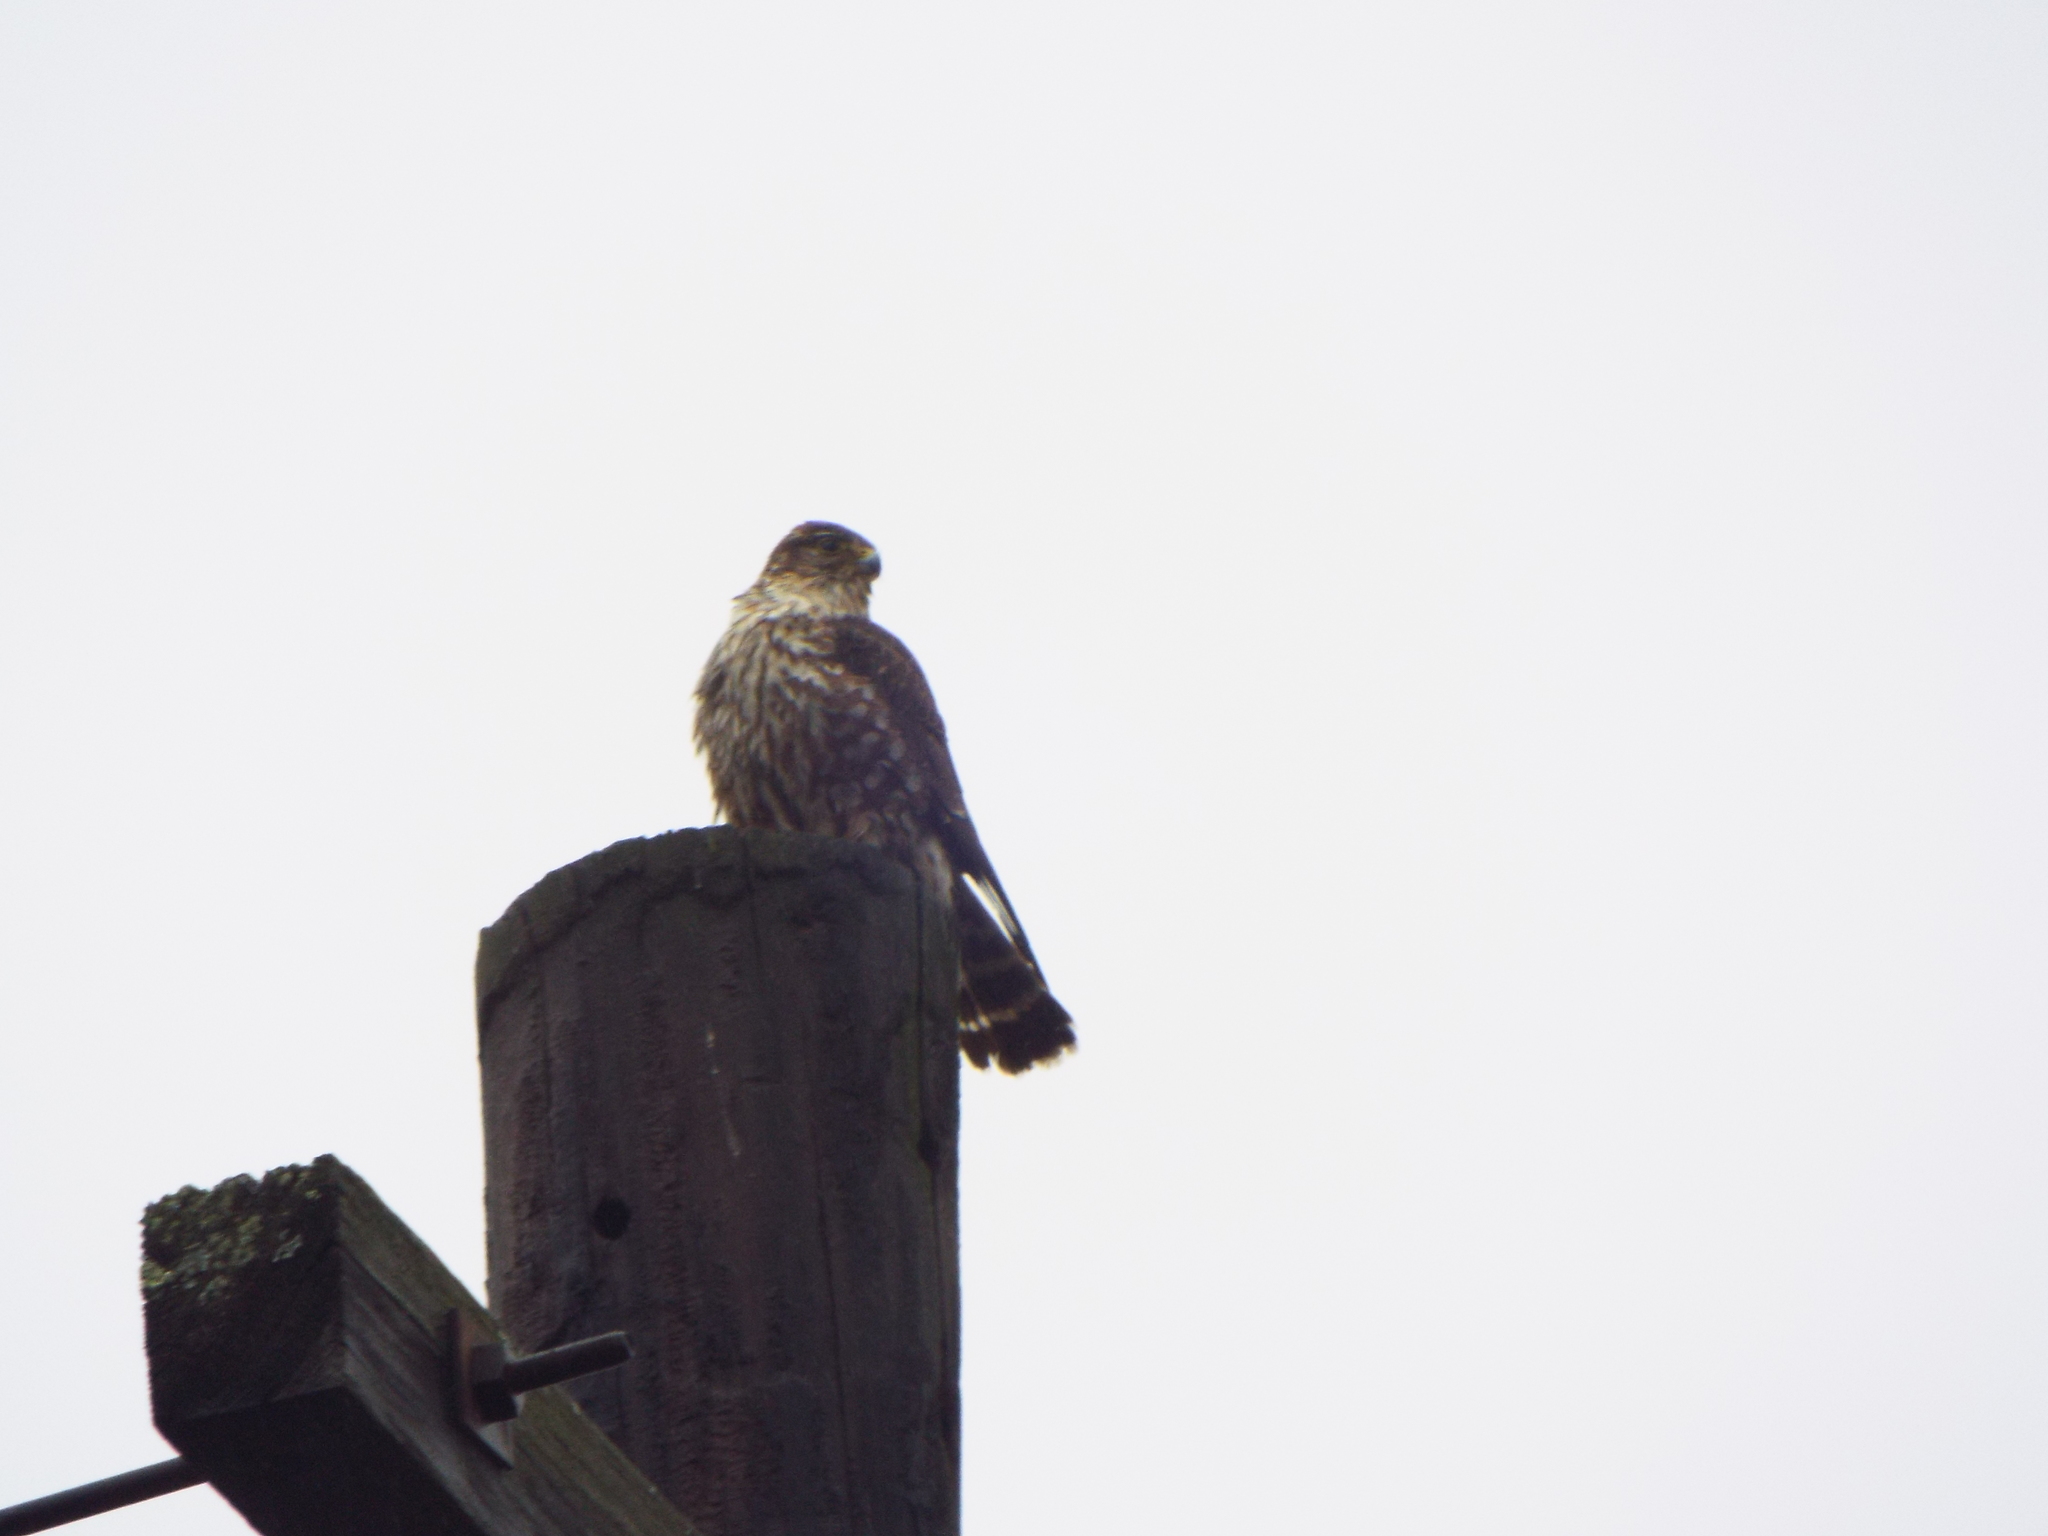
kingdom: Animalia
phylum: Chordata
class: Aves
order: Falconiformes
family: Falconidae
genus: Falco
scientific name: Falco columbarius
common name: Merlin
